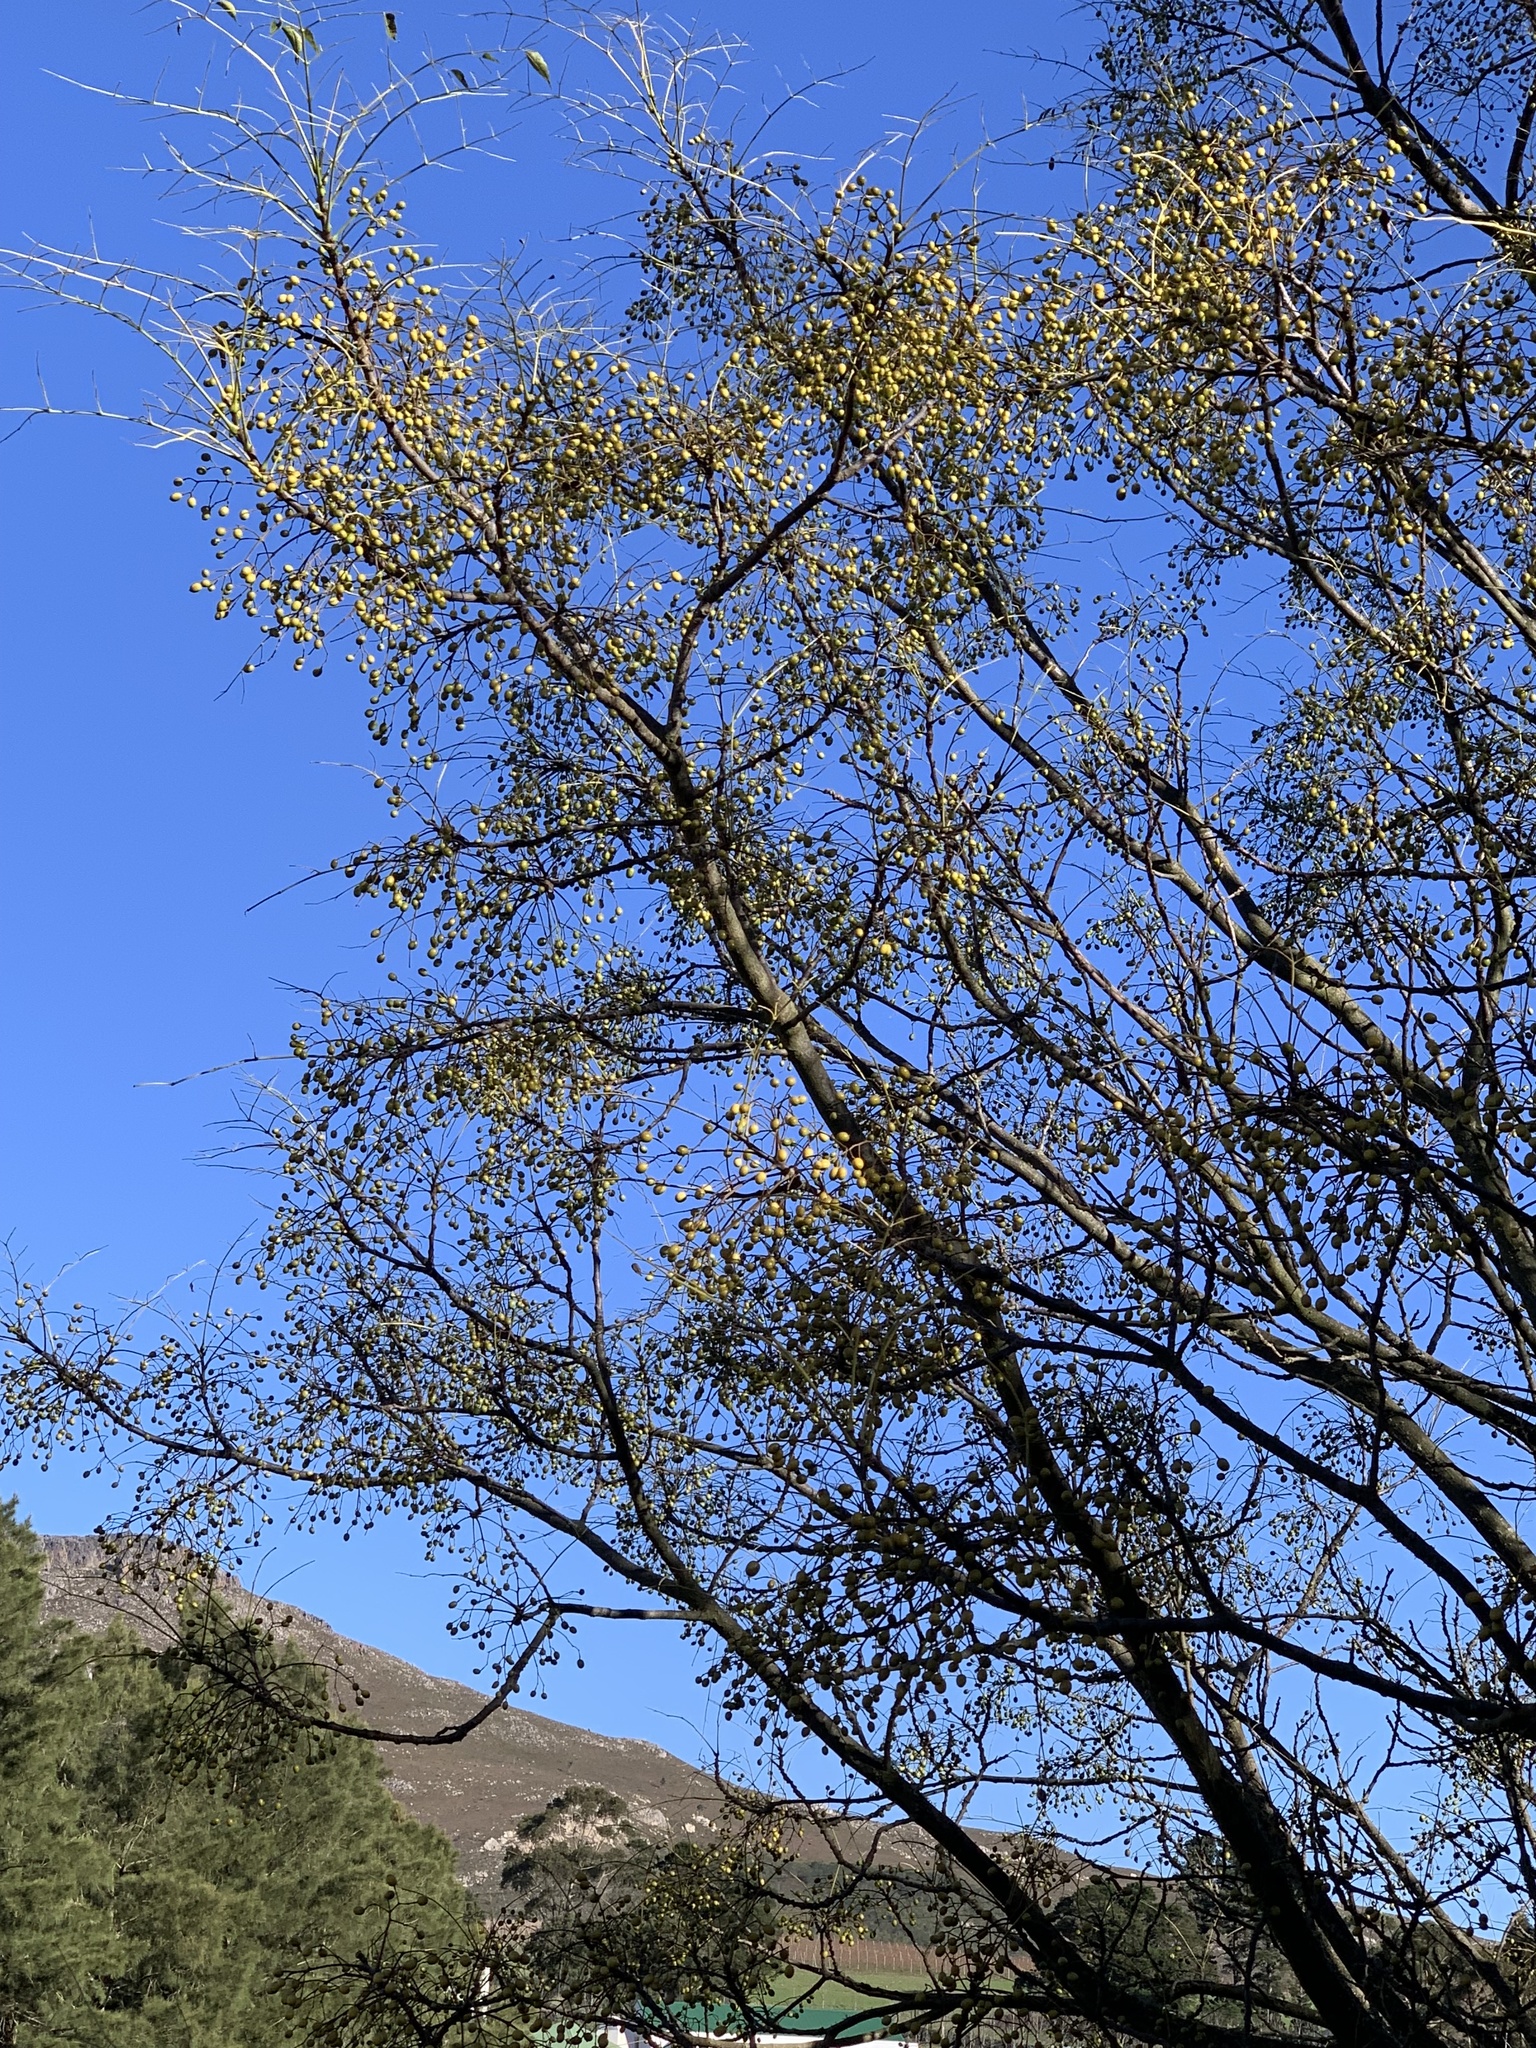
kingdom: Plantae
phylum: Tracheophyta
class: Magnoliopsida
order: Sapindales
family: Meliaceae
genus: Melia
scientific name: Melia azedarach
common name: Chinaberrytree
